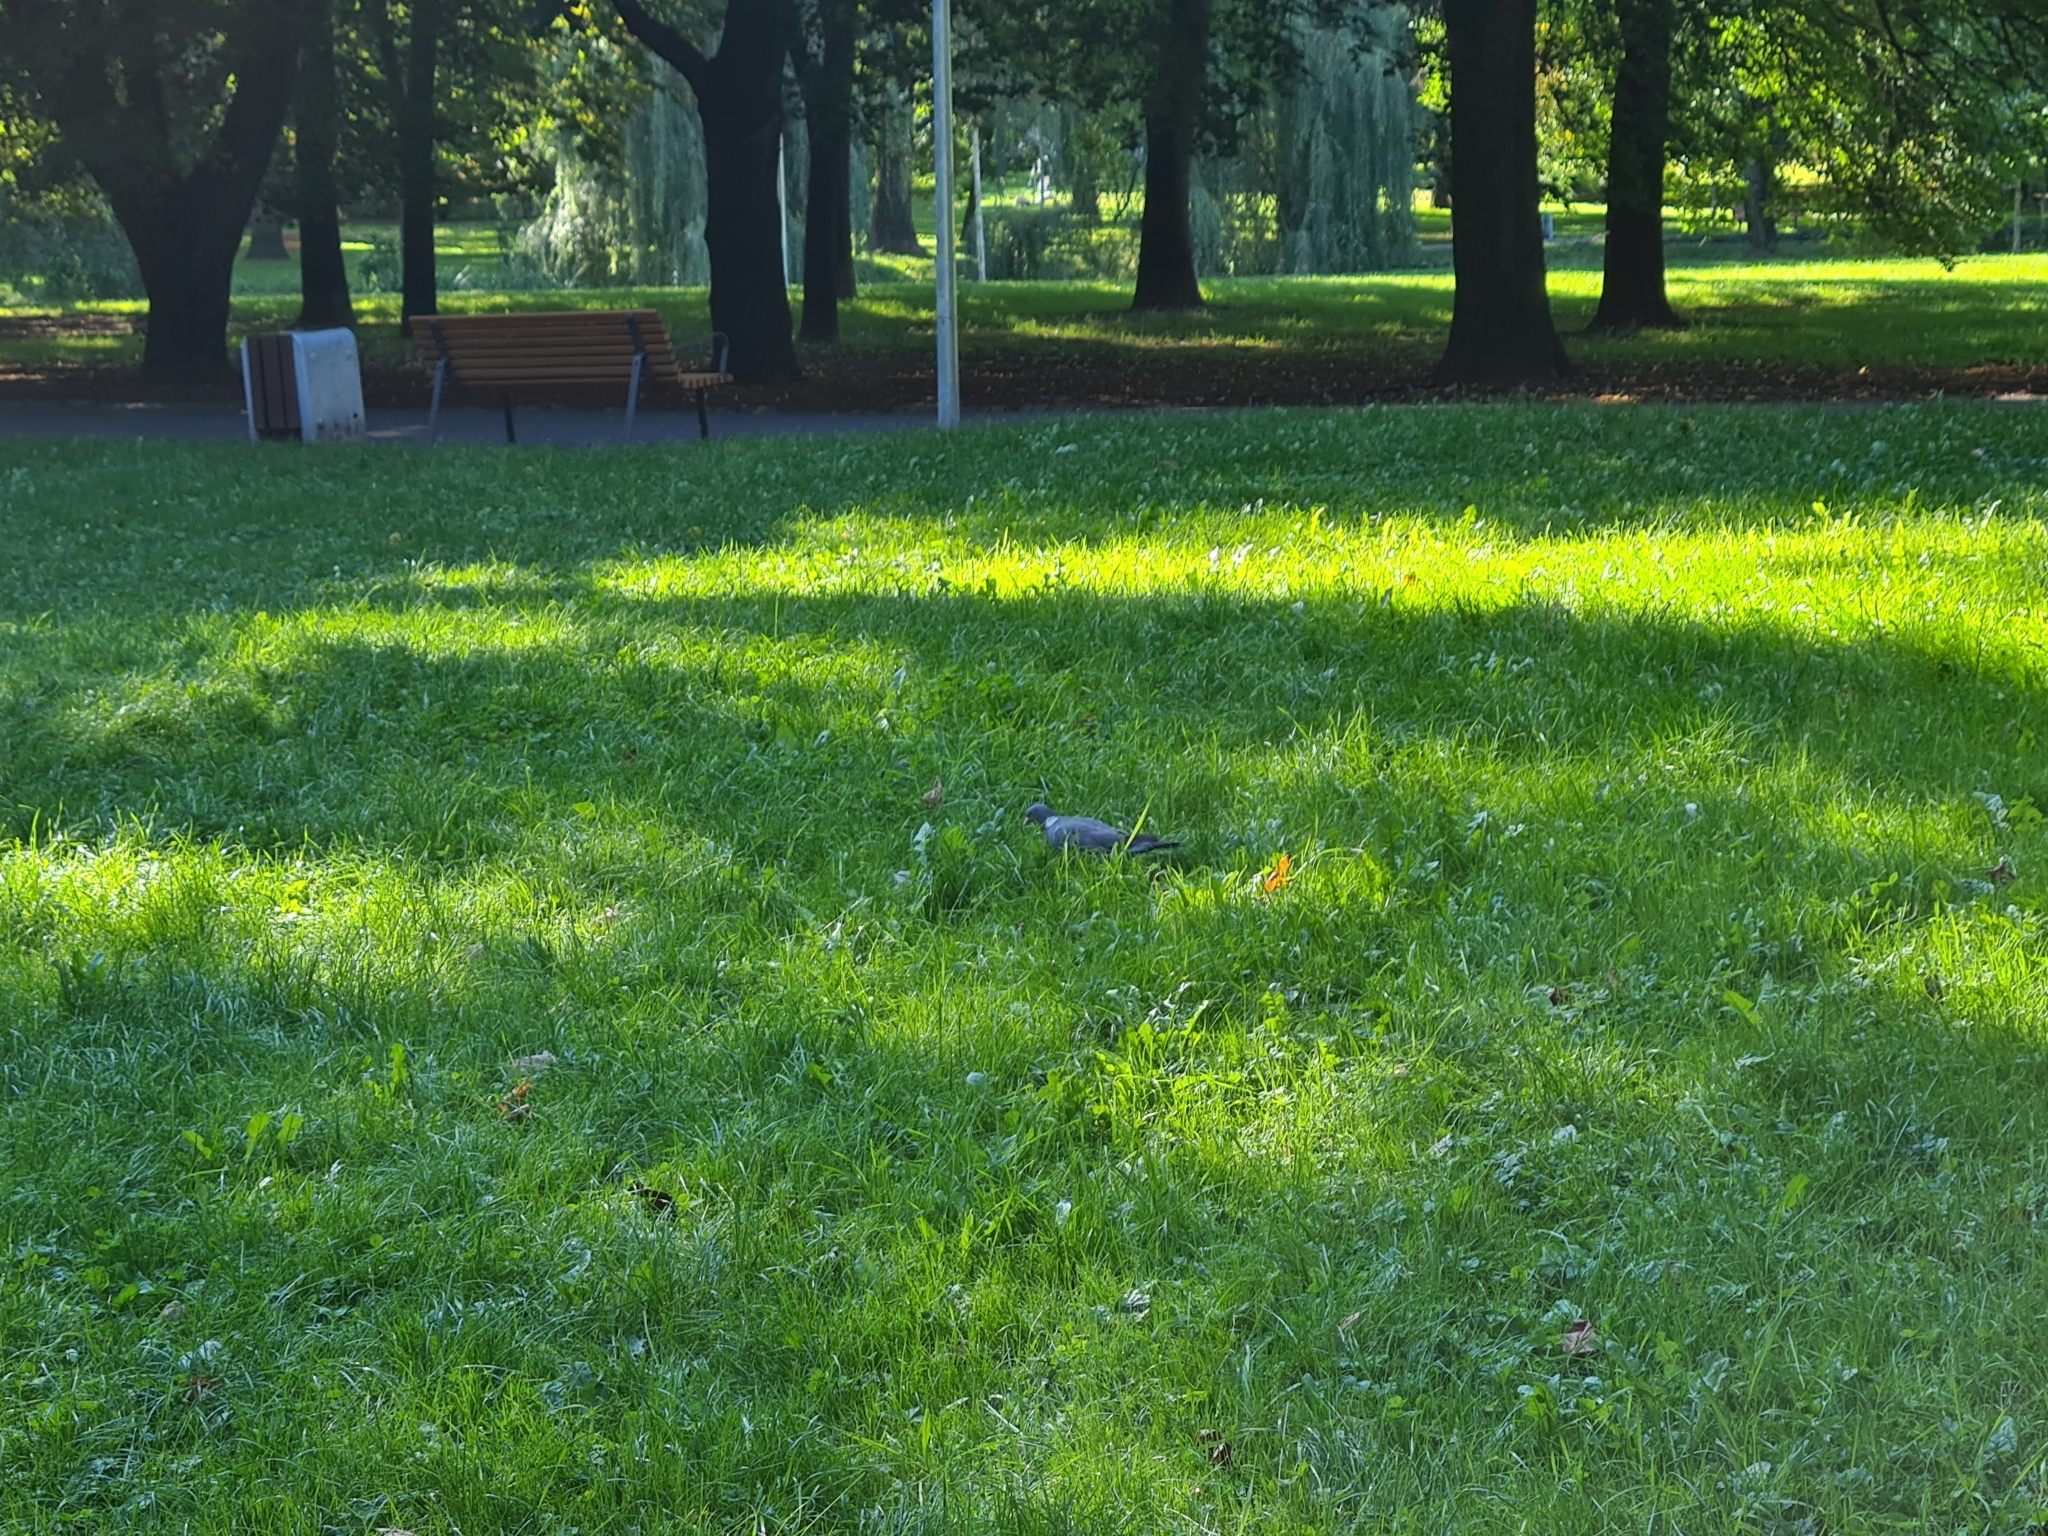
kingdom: Animalia
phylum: Chordata
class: Aves
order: Columbiformes
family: Columbidae
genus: Columba
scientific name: Columba palumbus
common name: Common wood pigeon
